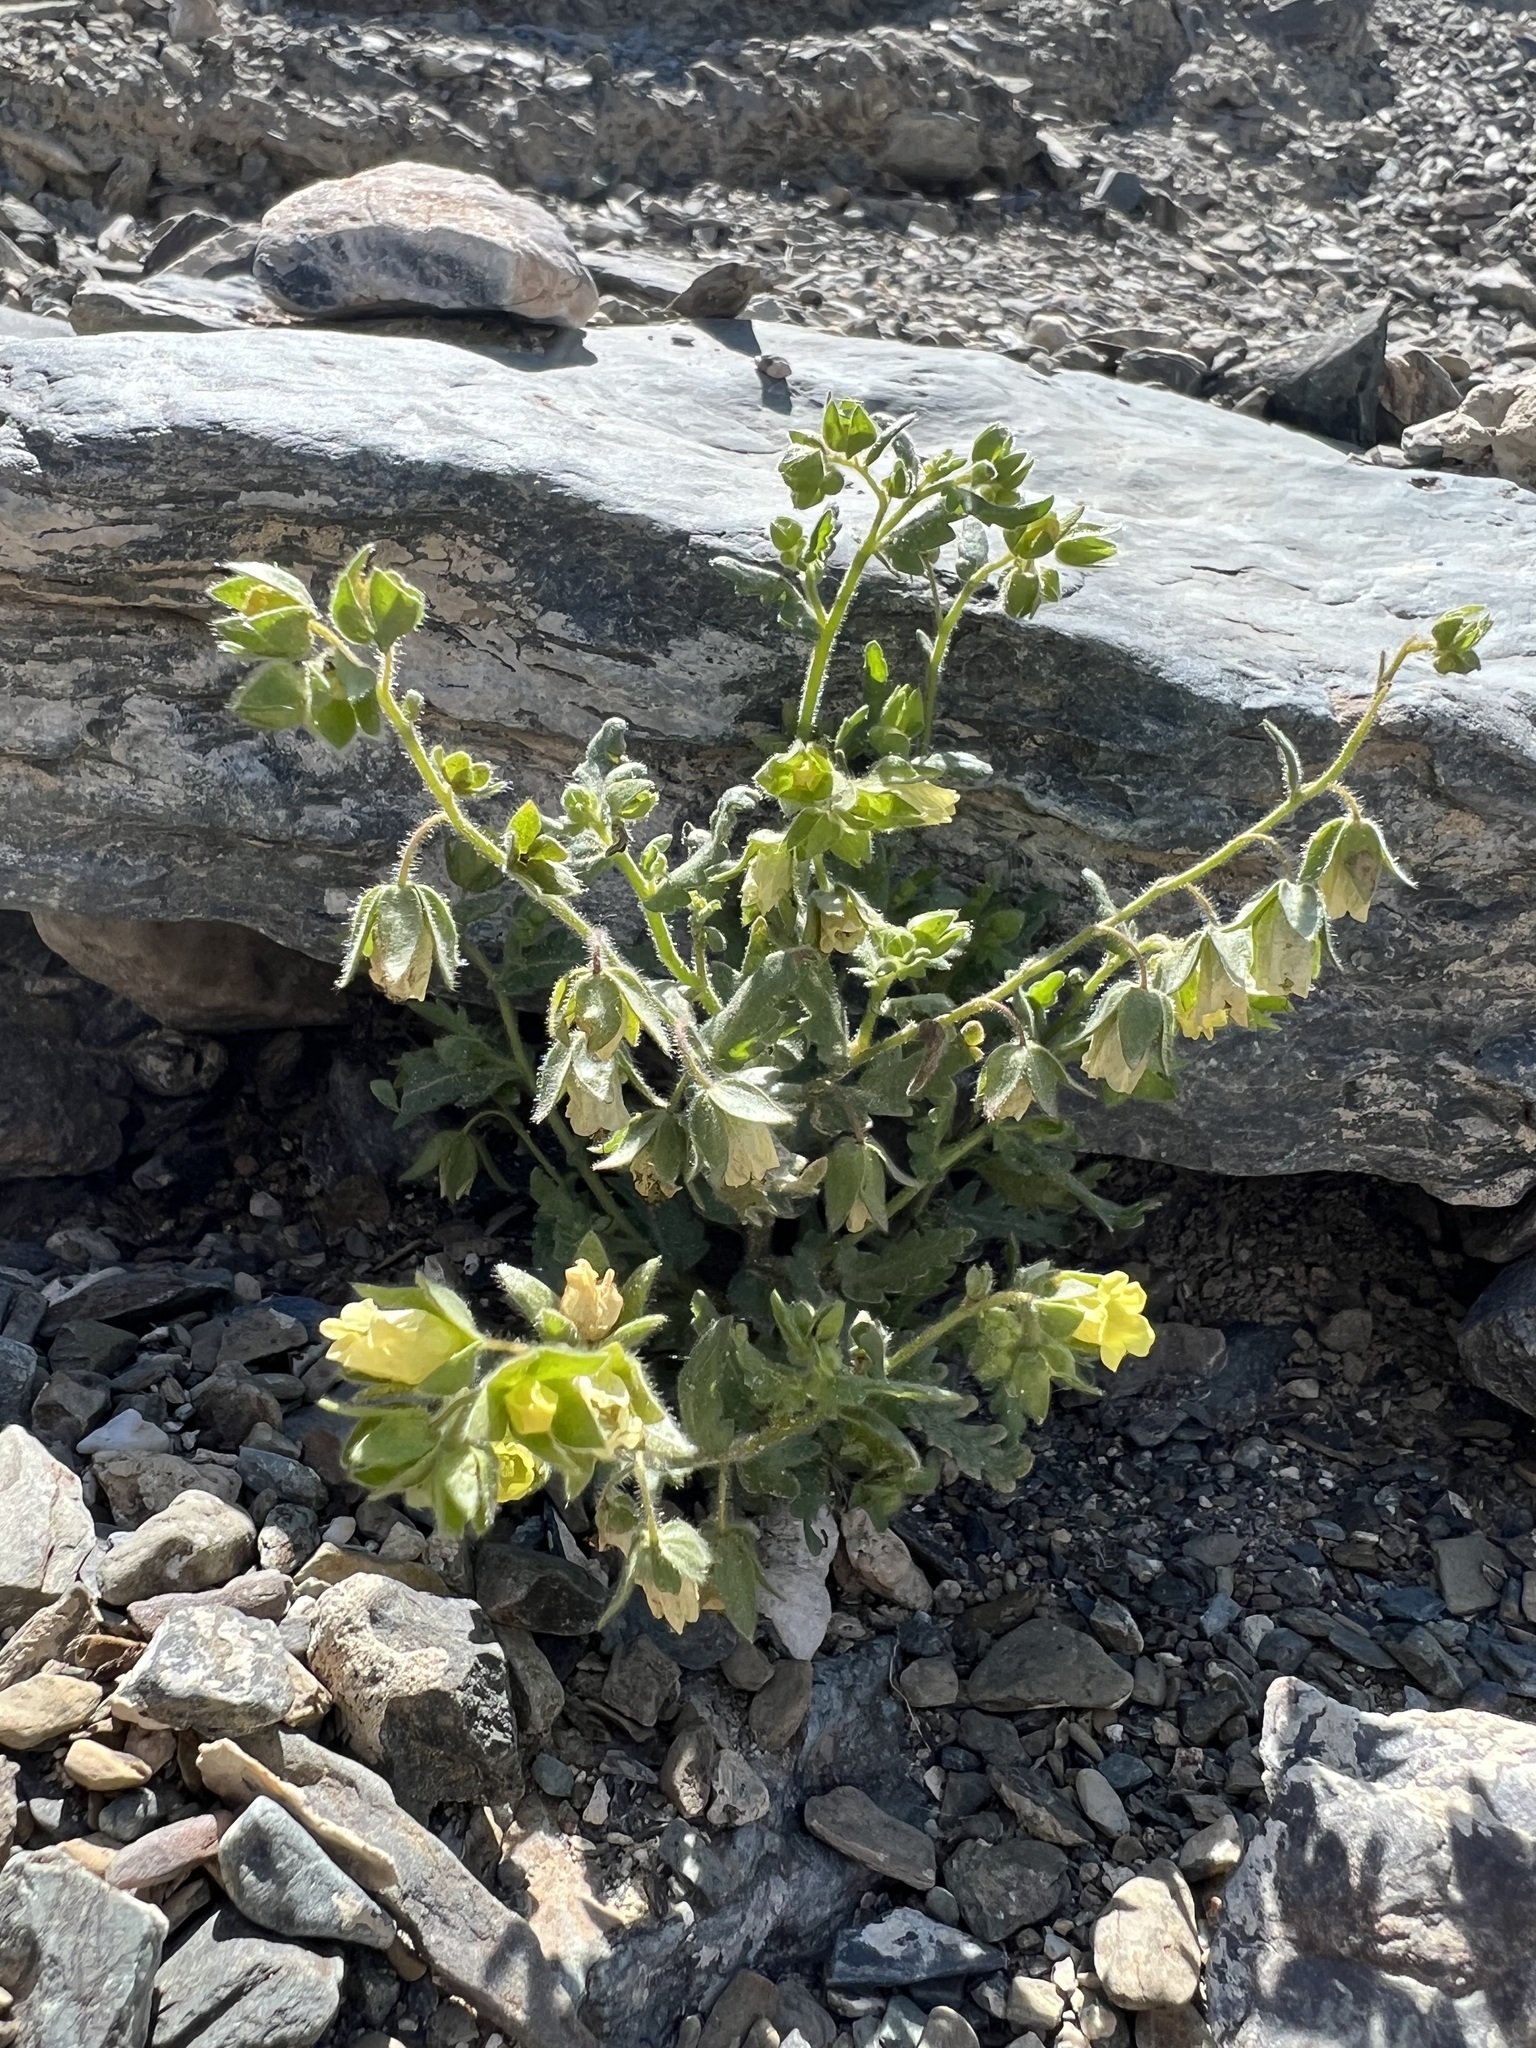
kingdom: Plantae
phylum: Tracheophyta
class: Magnoliopsida
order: Boraginales
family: Hydrophyllaceae
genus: Emmenanthe
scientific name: Emmenanthe penduliflora
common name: Whispering-bells
